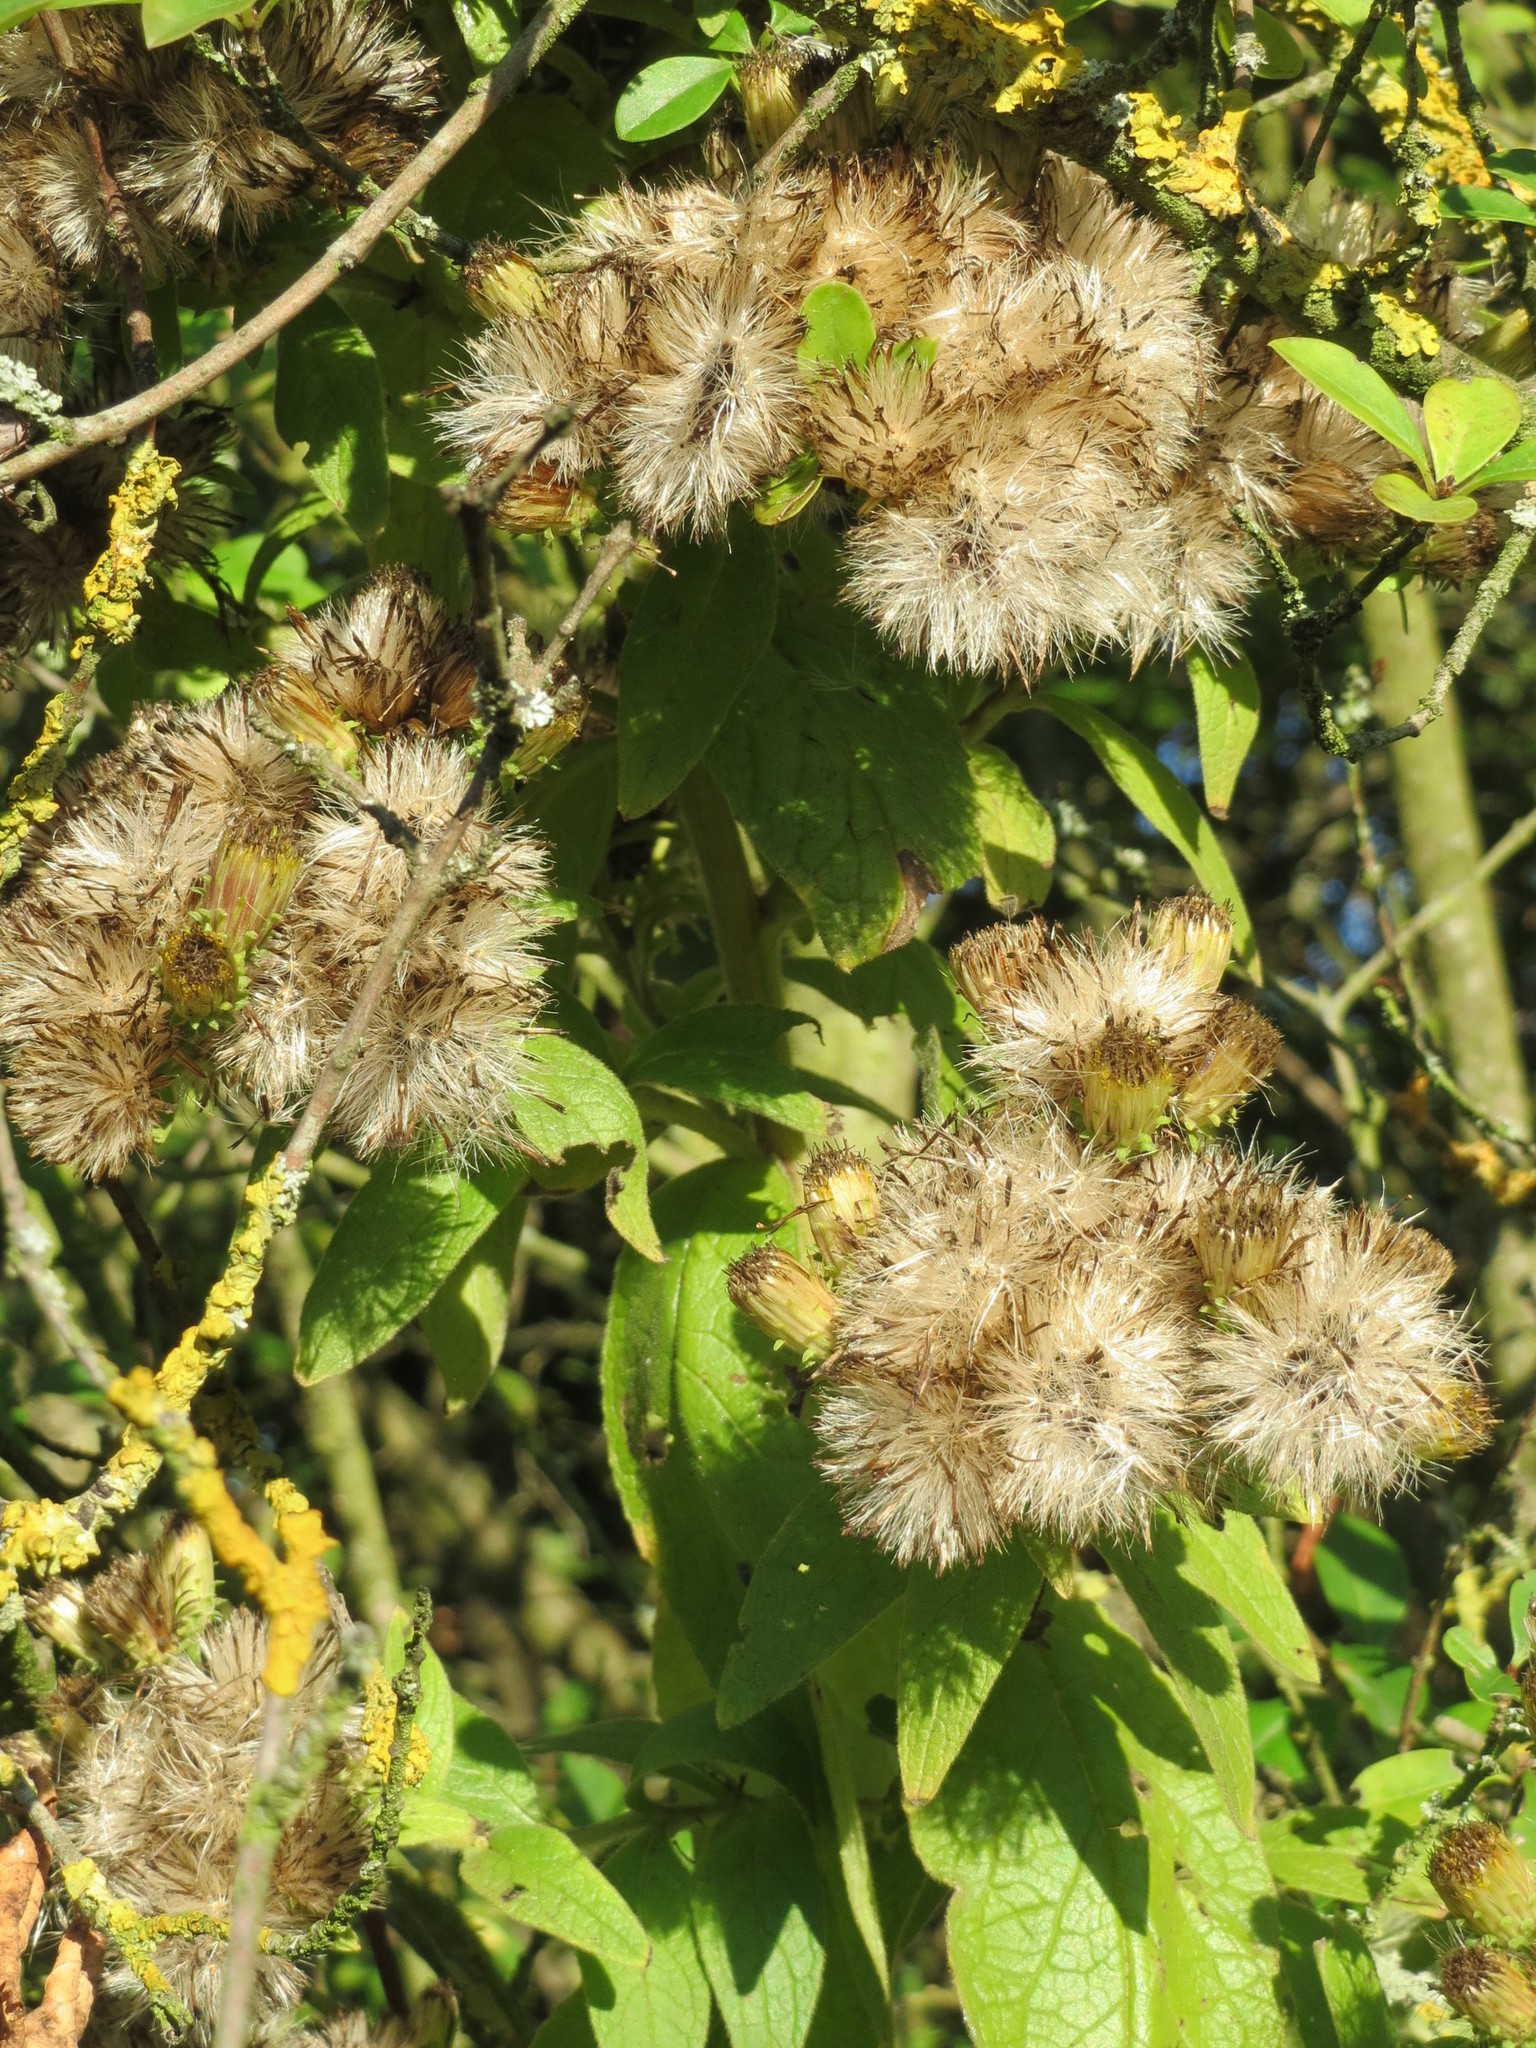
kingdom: Plantae
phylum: Tracheophyta
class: Magnoliopsida
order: Asterales
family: Asteraceae
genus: Pentanema
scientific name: Pentanema squarrosum
